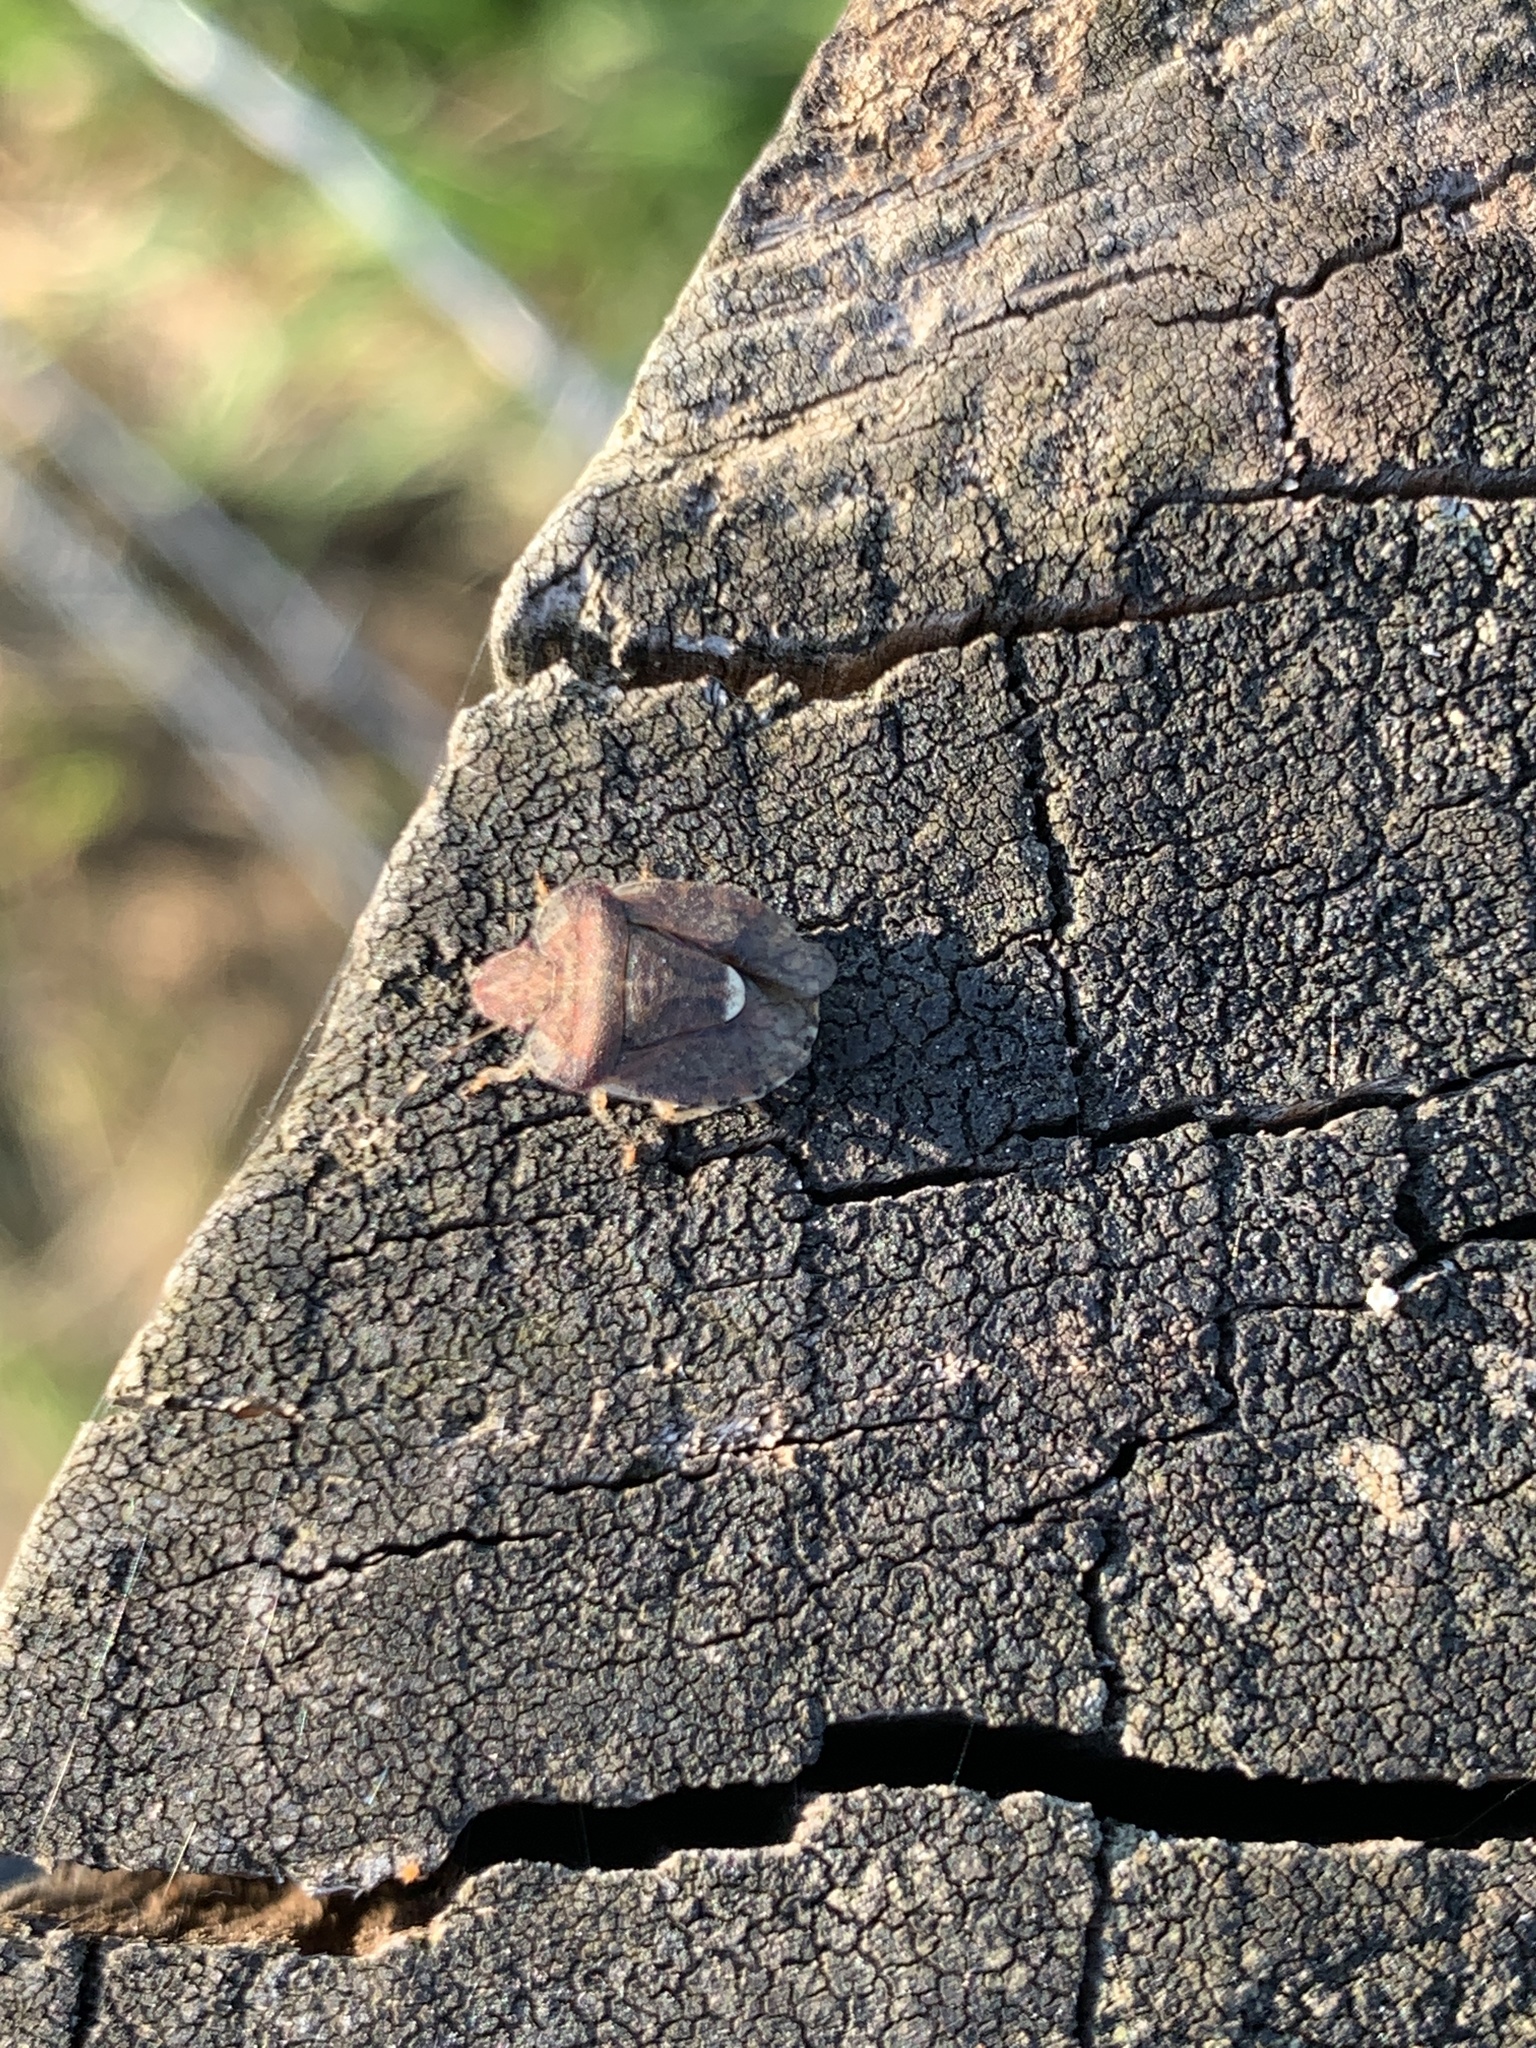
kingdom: Animalia
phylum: Arthropoda
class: Insecta
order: Hemiptera
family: Pentatomidae
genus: Dyroderes
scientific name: Dyroderes umbraculatus
